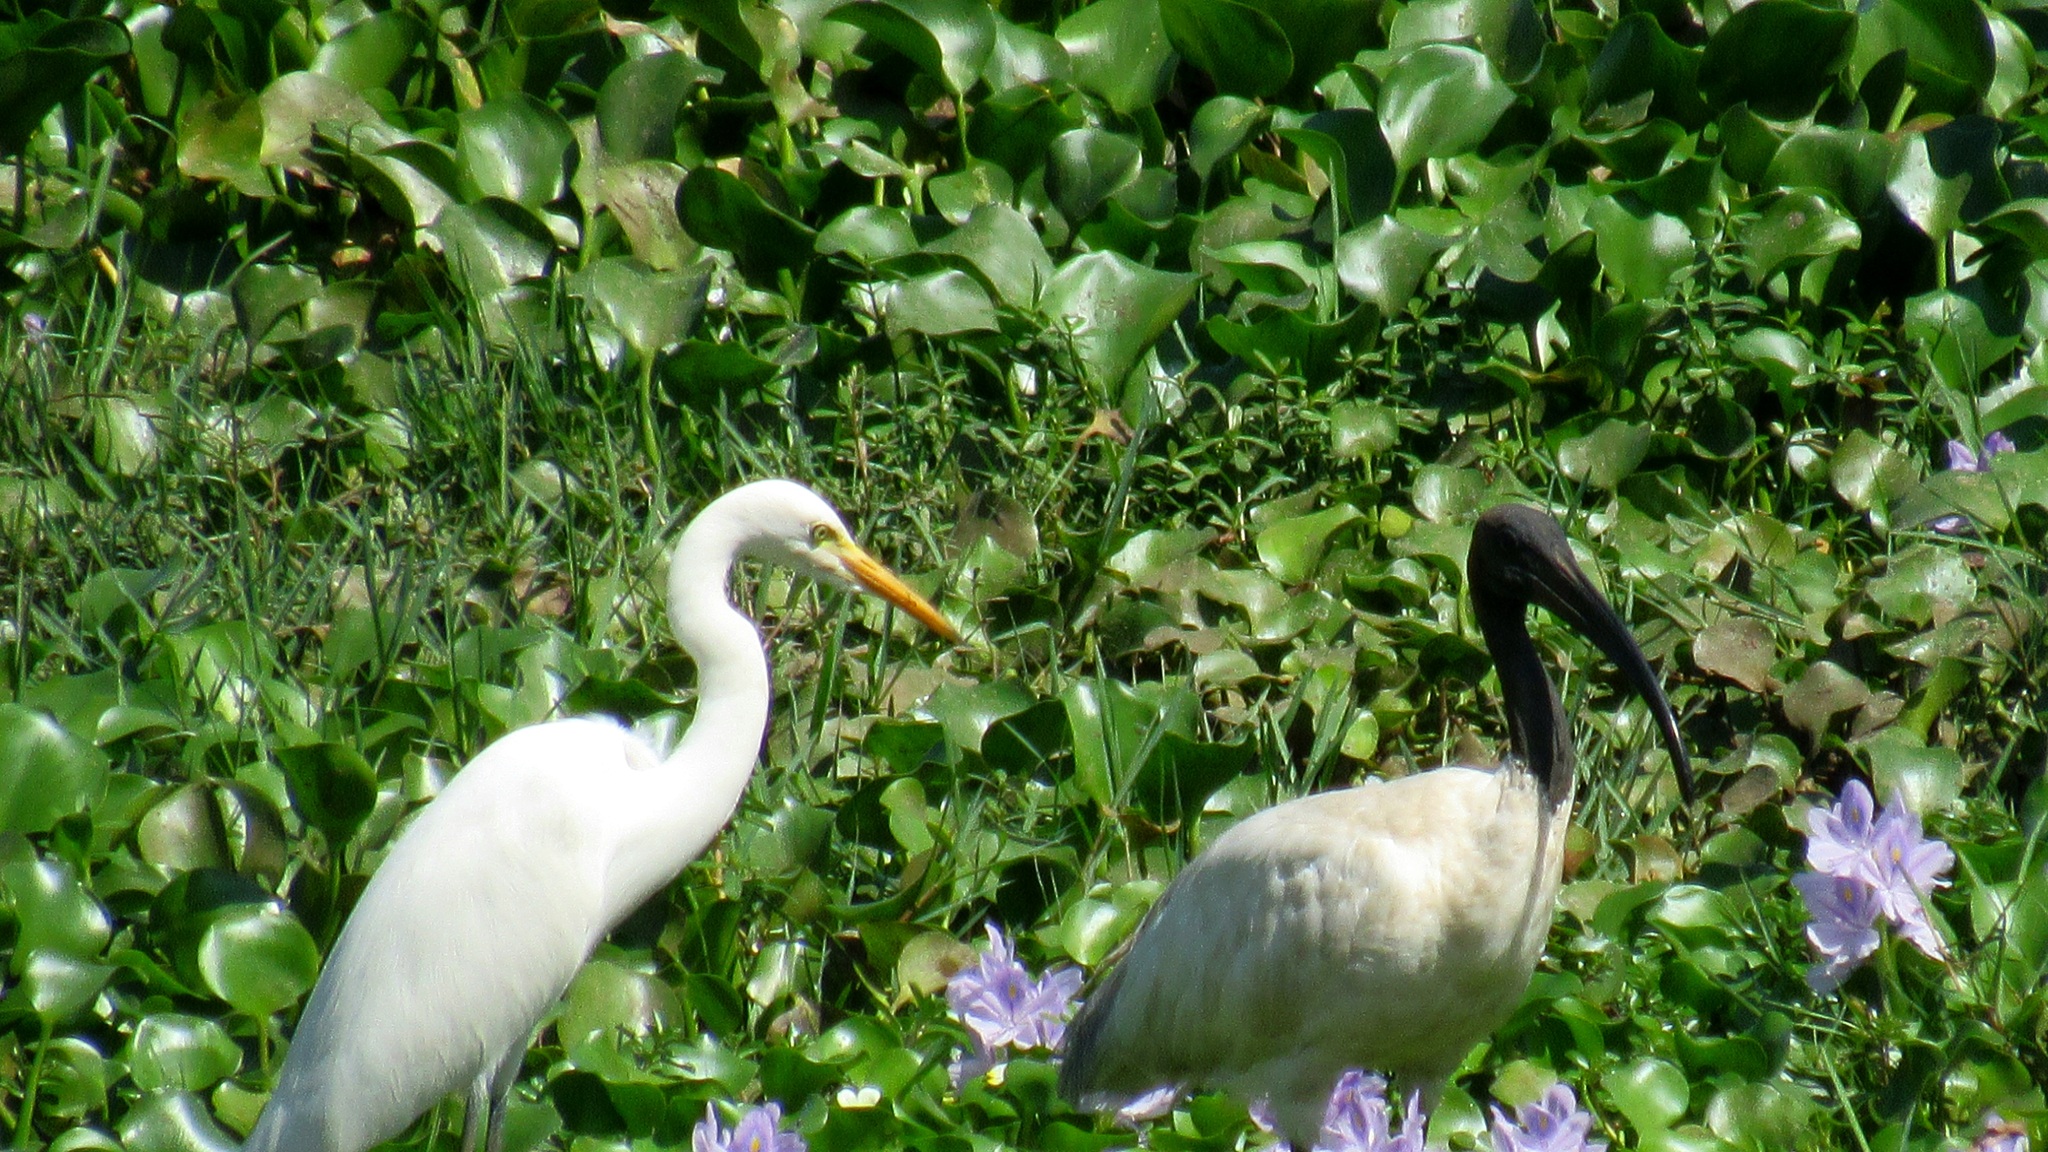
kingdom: Animalia
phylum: Chordata
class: Aves
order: Pelecaniformes
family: Ardeidae
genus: Egretta
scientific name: Egretta intermedia
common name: Intermediate egret
